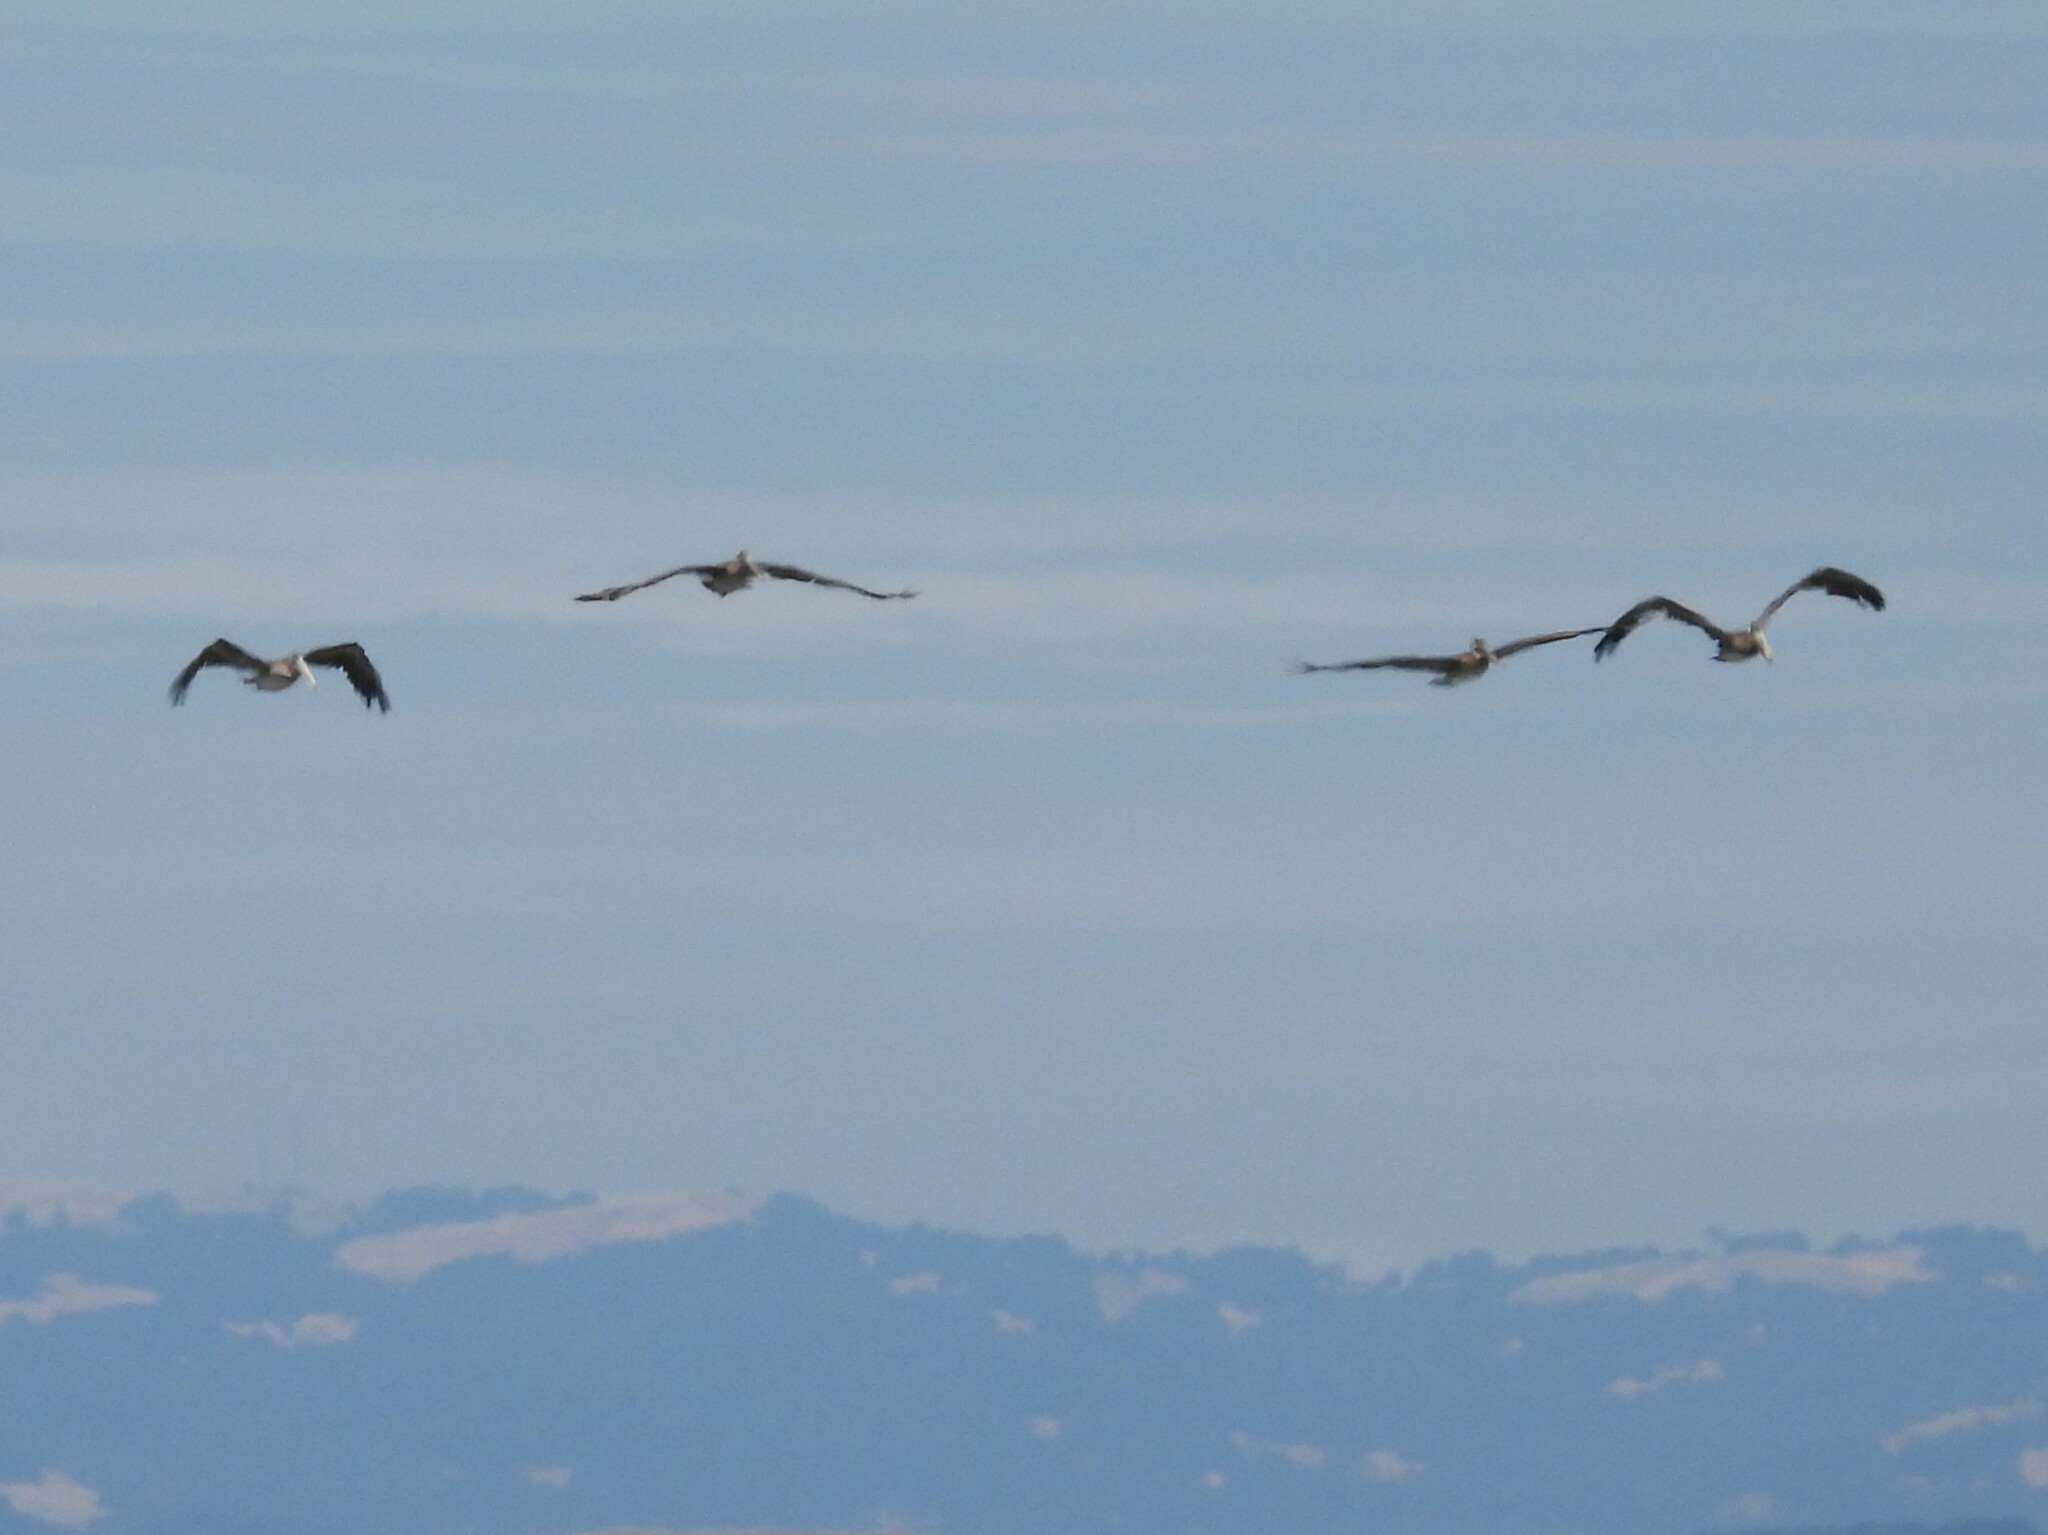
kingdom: Animalia
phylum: Chordata
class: Aves
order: Pelecaniformes
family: Pelecanidae
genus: Pelecanus
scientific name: Pelecanus occidentalis
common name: Brown pelican
